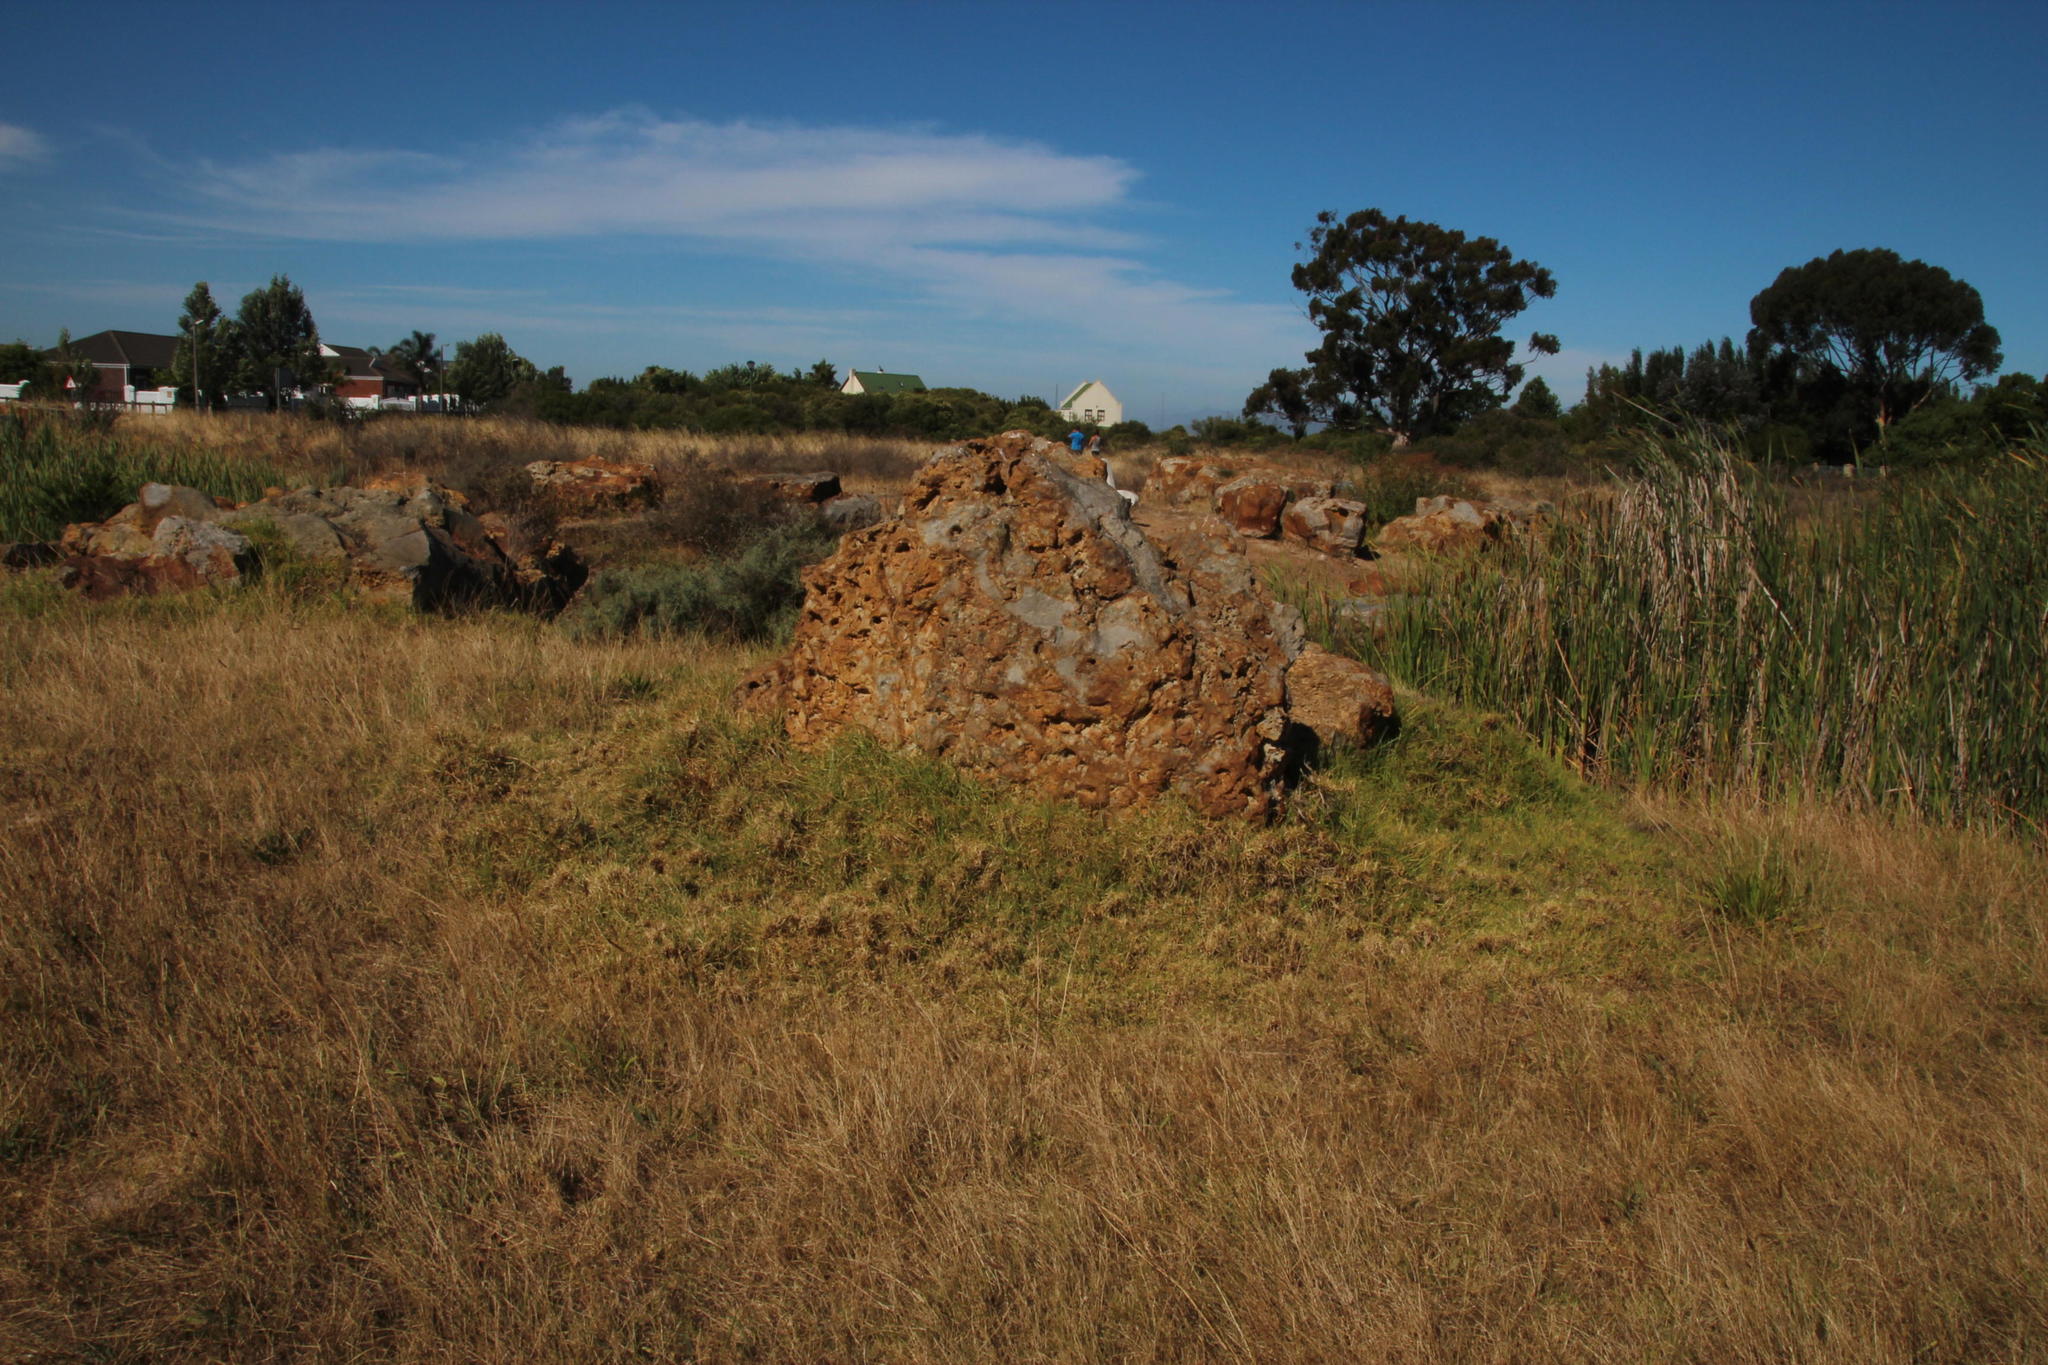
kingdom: Plantae
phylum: Tracheophyta
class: Liliopsida
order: Poales
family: Poaceae
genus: Cenchrus
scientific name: Cenchrus clandestinus
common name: Kikuyugrass
